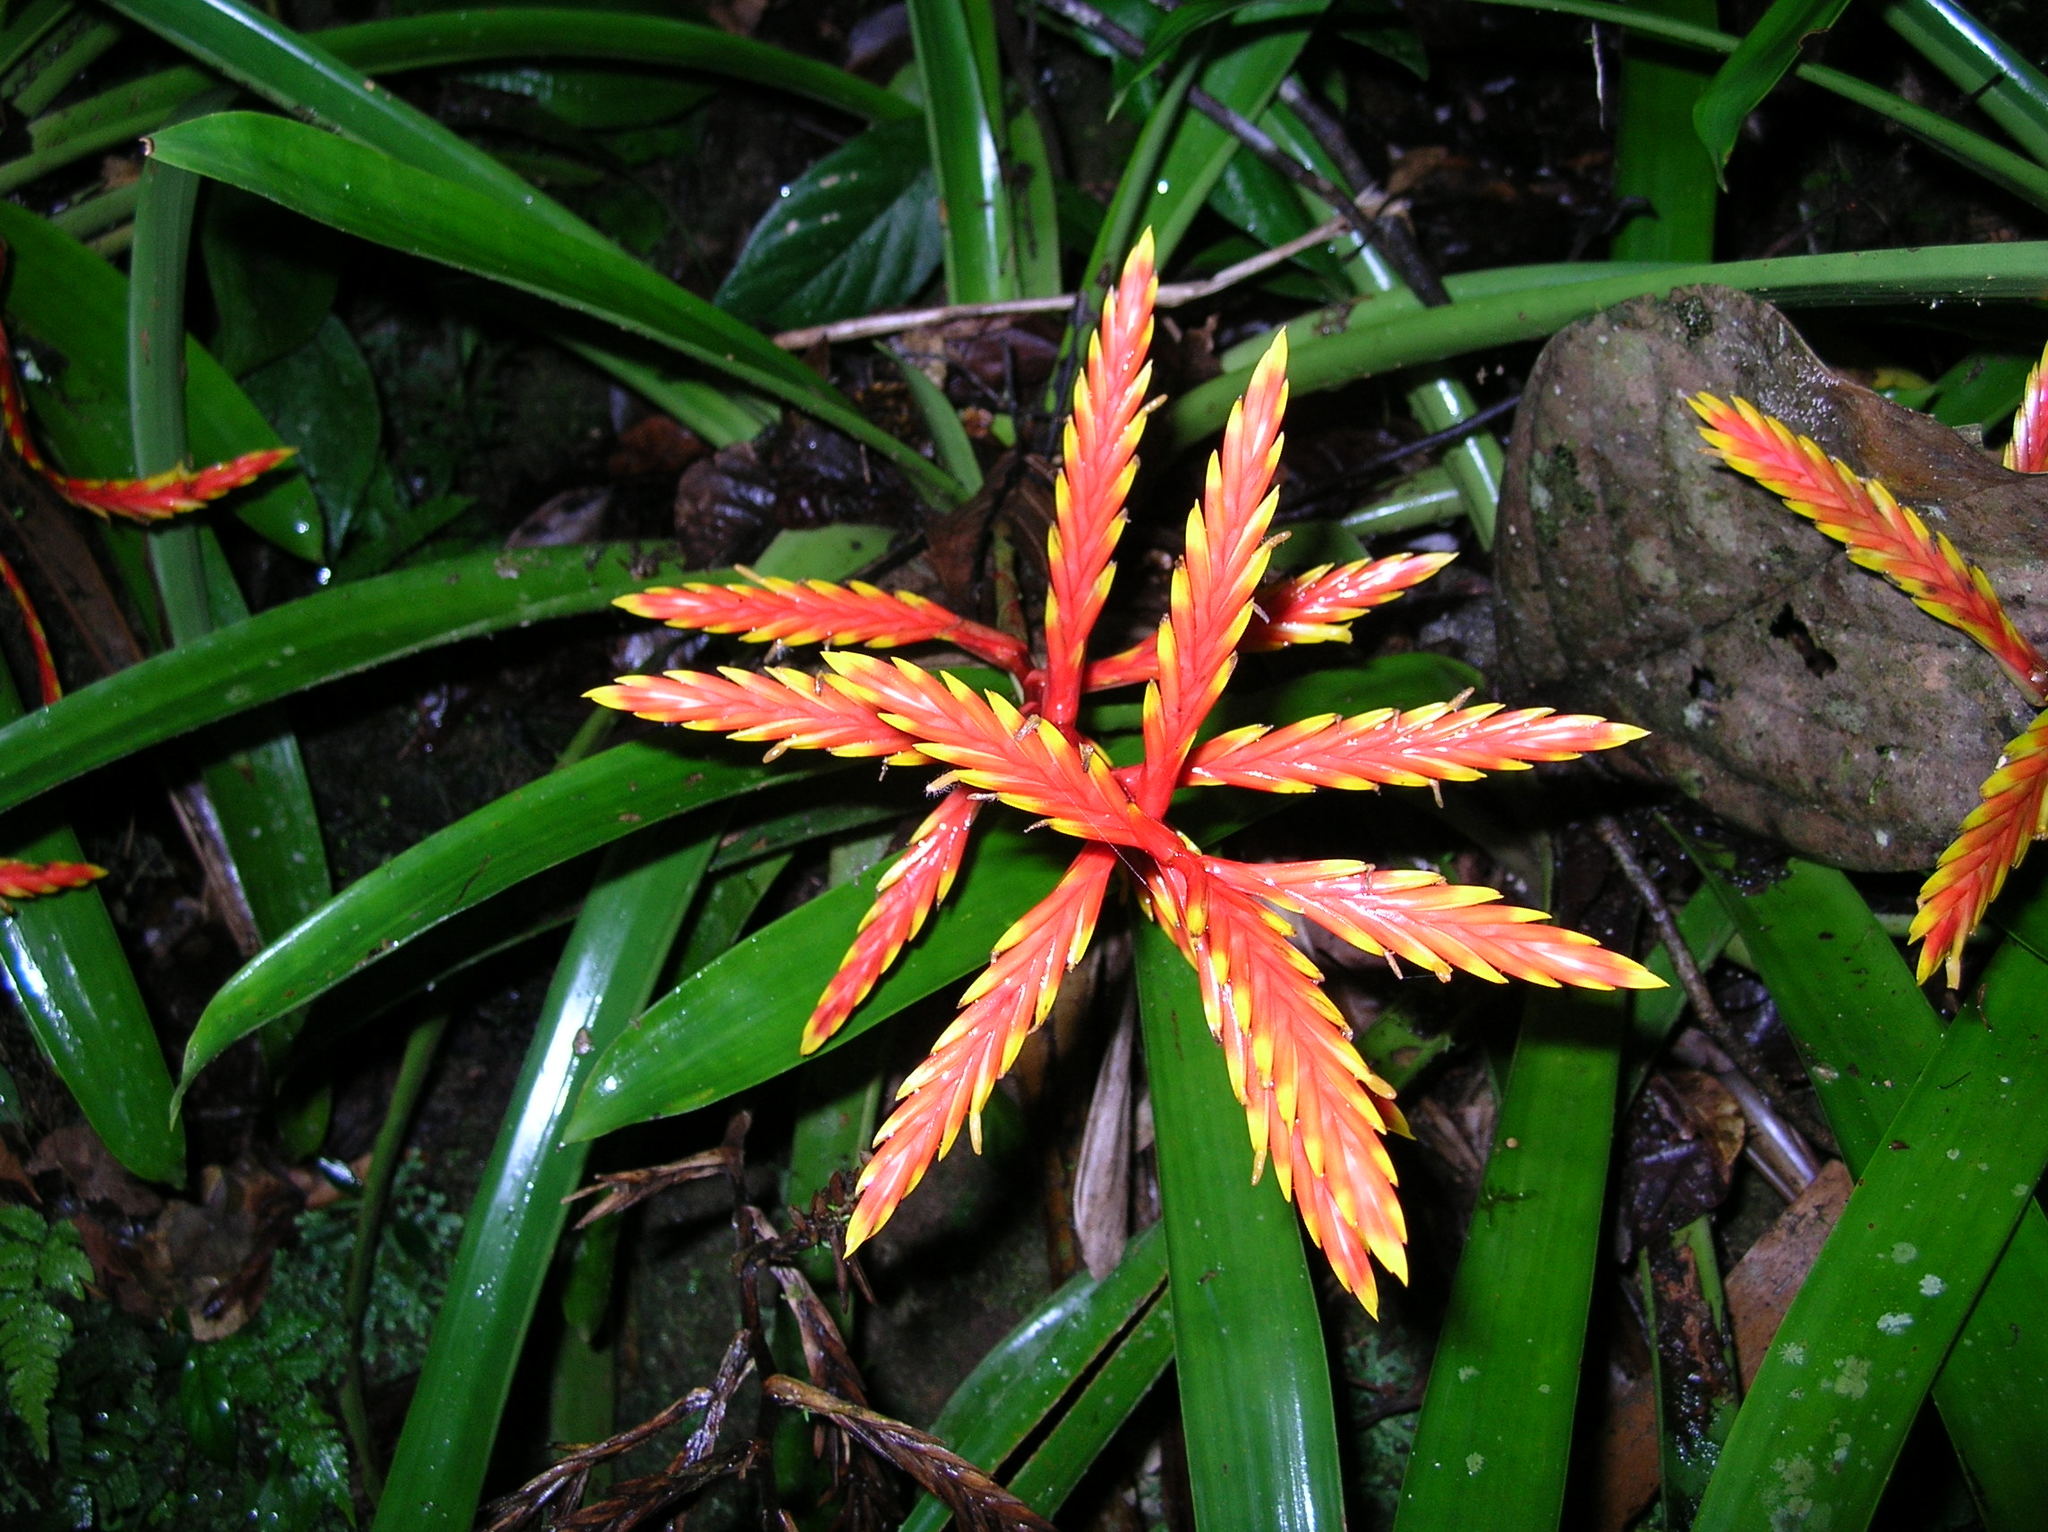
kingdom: Plantae
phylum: Tracheophyta
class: Liliopsida
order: Poales
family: Bromeliaceae
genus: Vriesea
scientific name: Vriesea zamorensis
